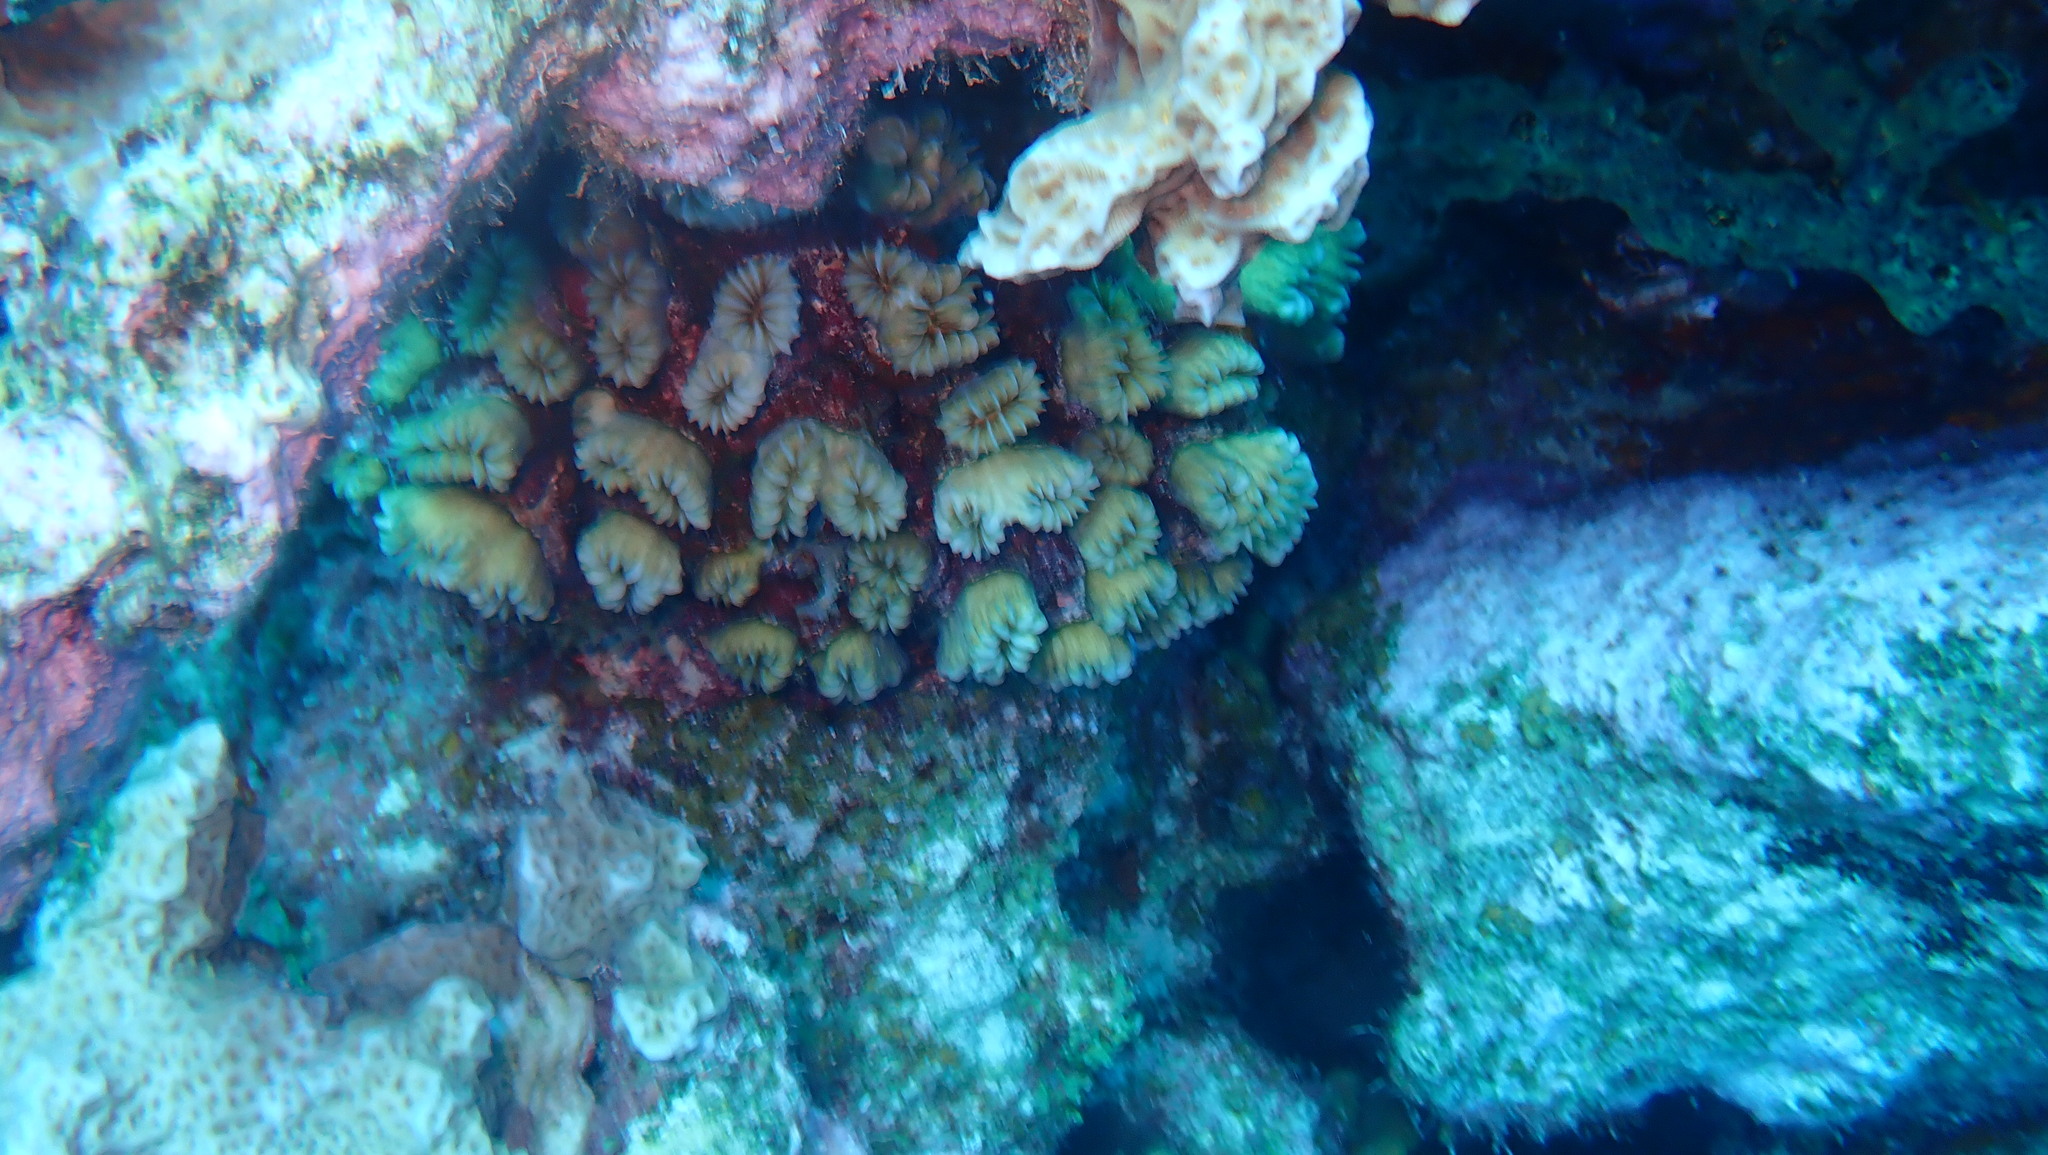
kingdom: Animalia
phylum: Cnidaria
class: Anthozoa
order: Scleractinia
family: Meandrinidae
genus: Eusmilia
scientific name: Eusmilia fastigiata
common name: Smooth flower coral
